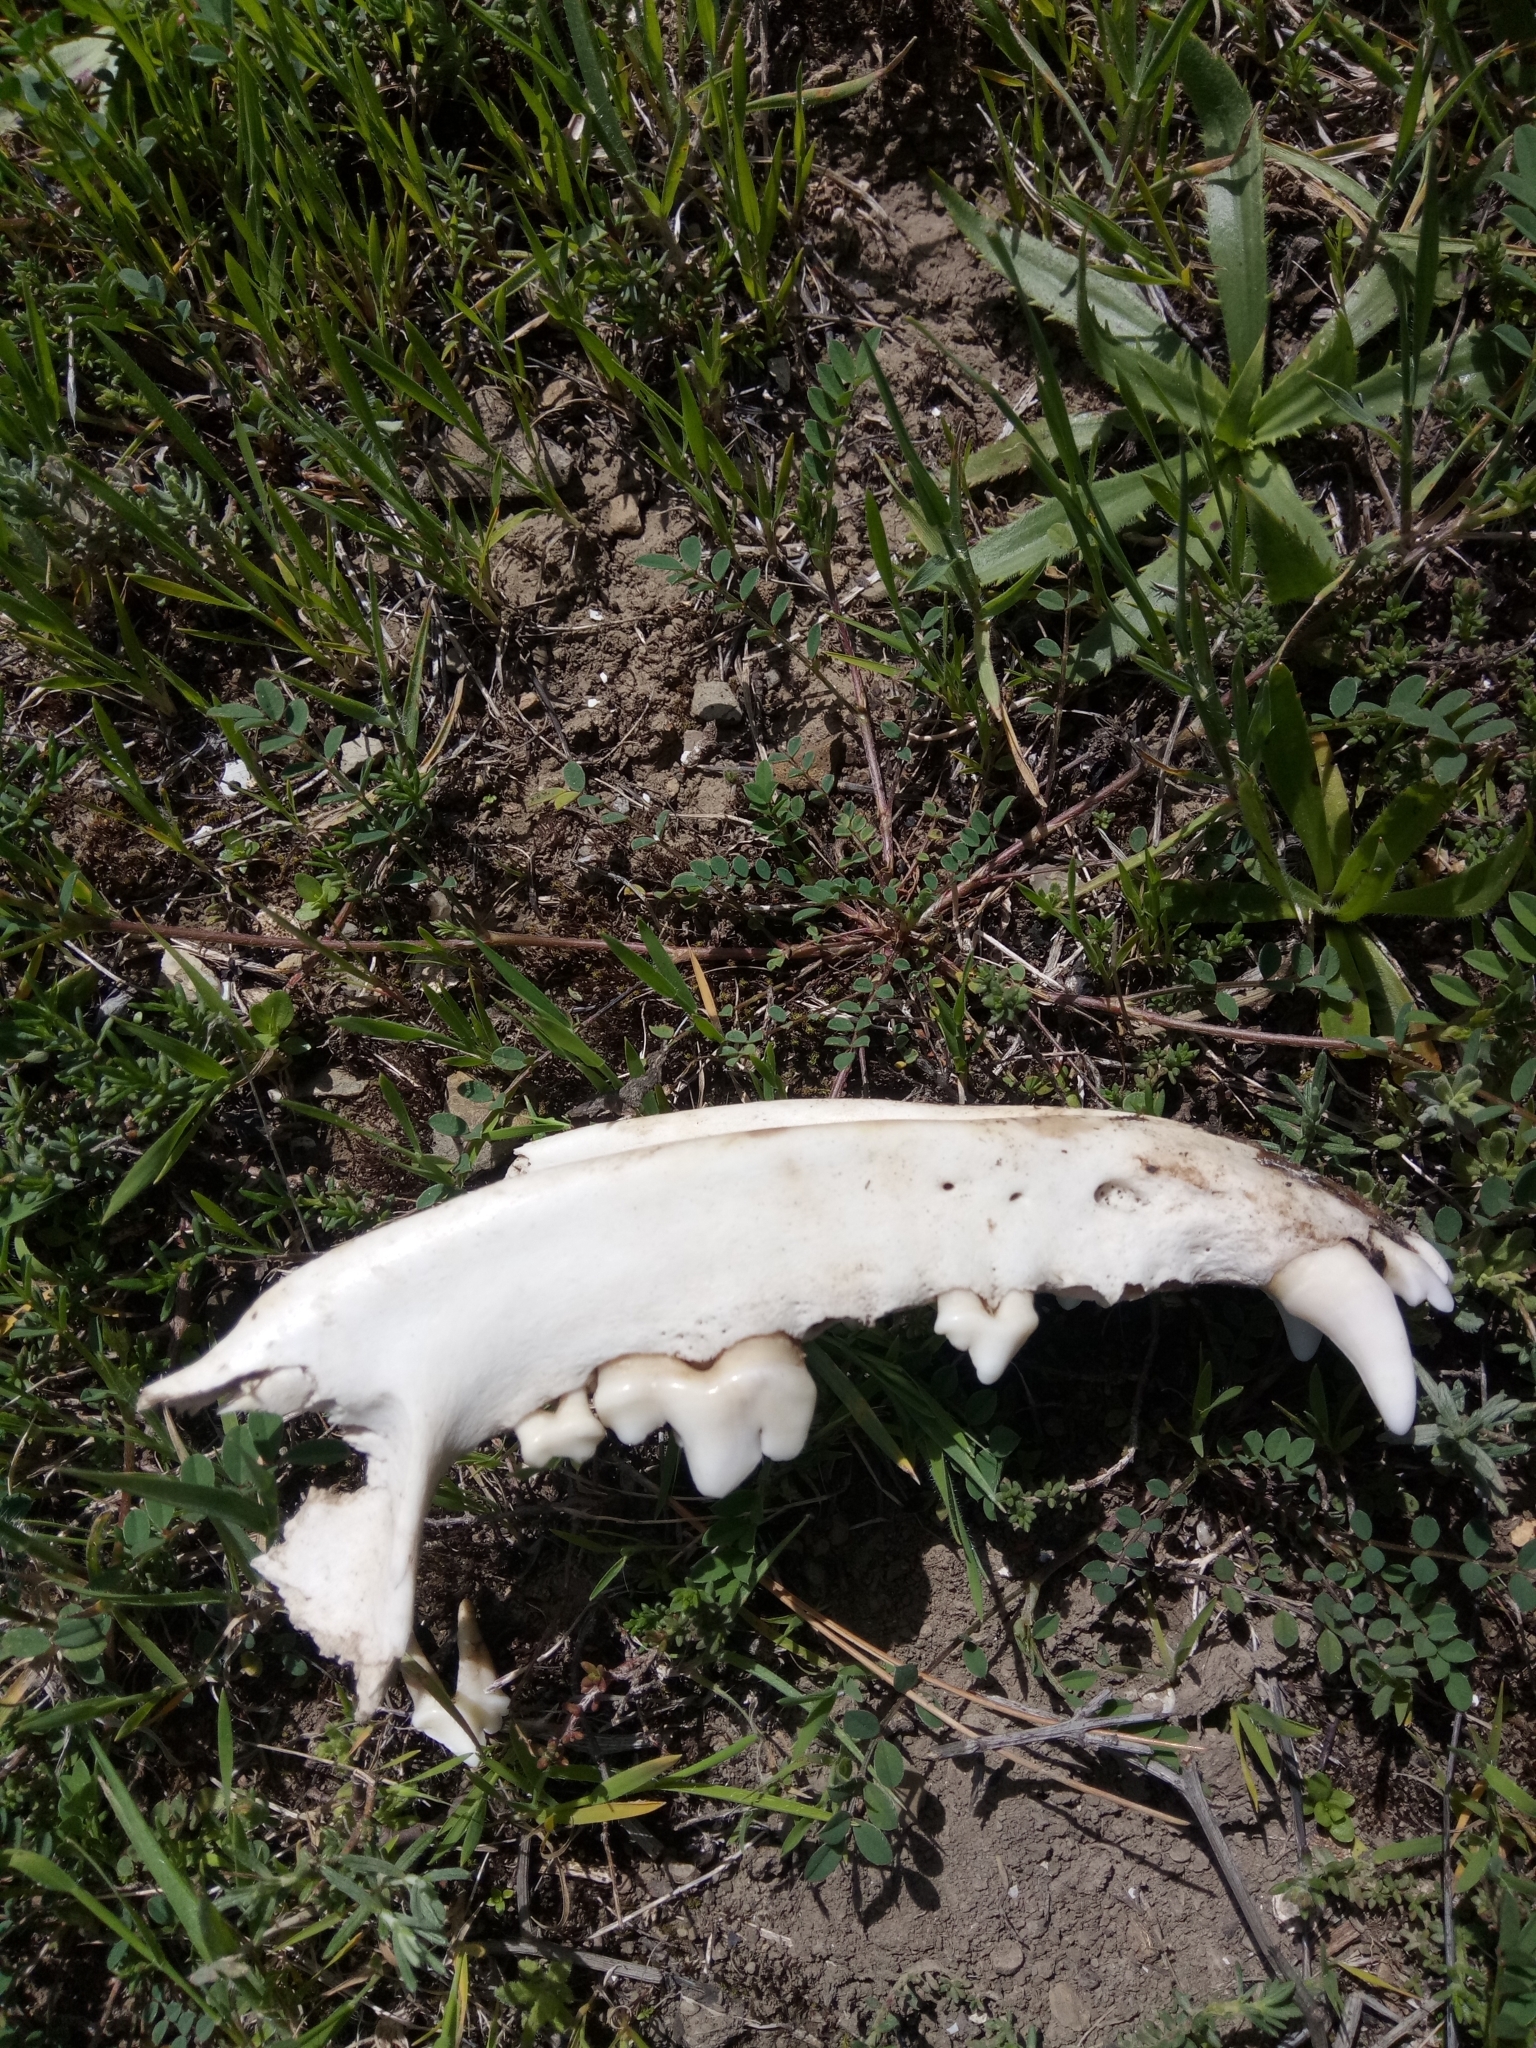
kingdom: Animalia
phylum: Chordata
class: Mammalia
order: Carnivora
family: Canidae
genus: Canis
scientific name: Canis lupus
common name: Gray wolf
